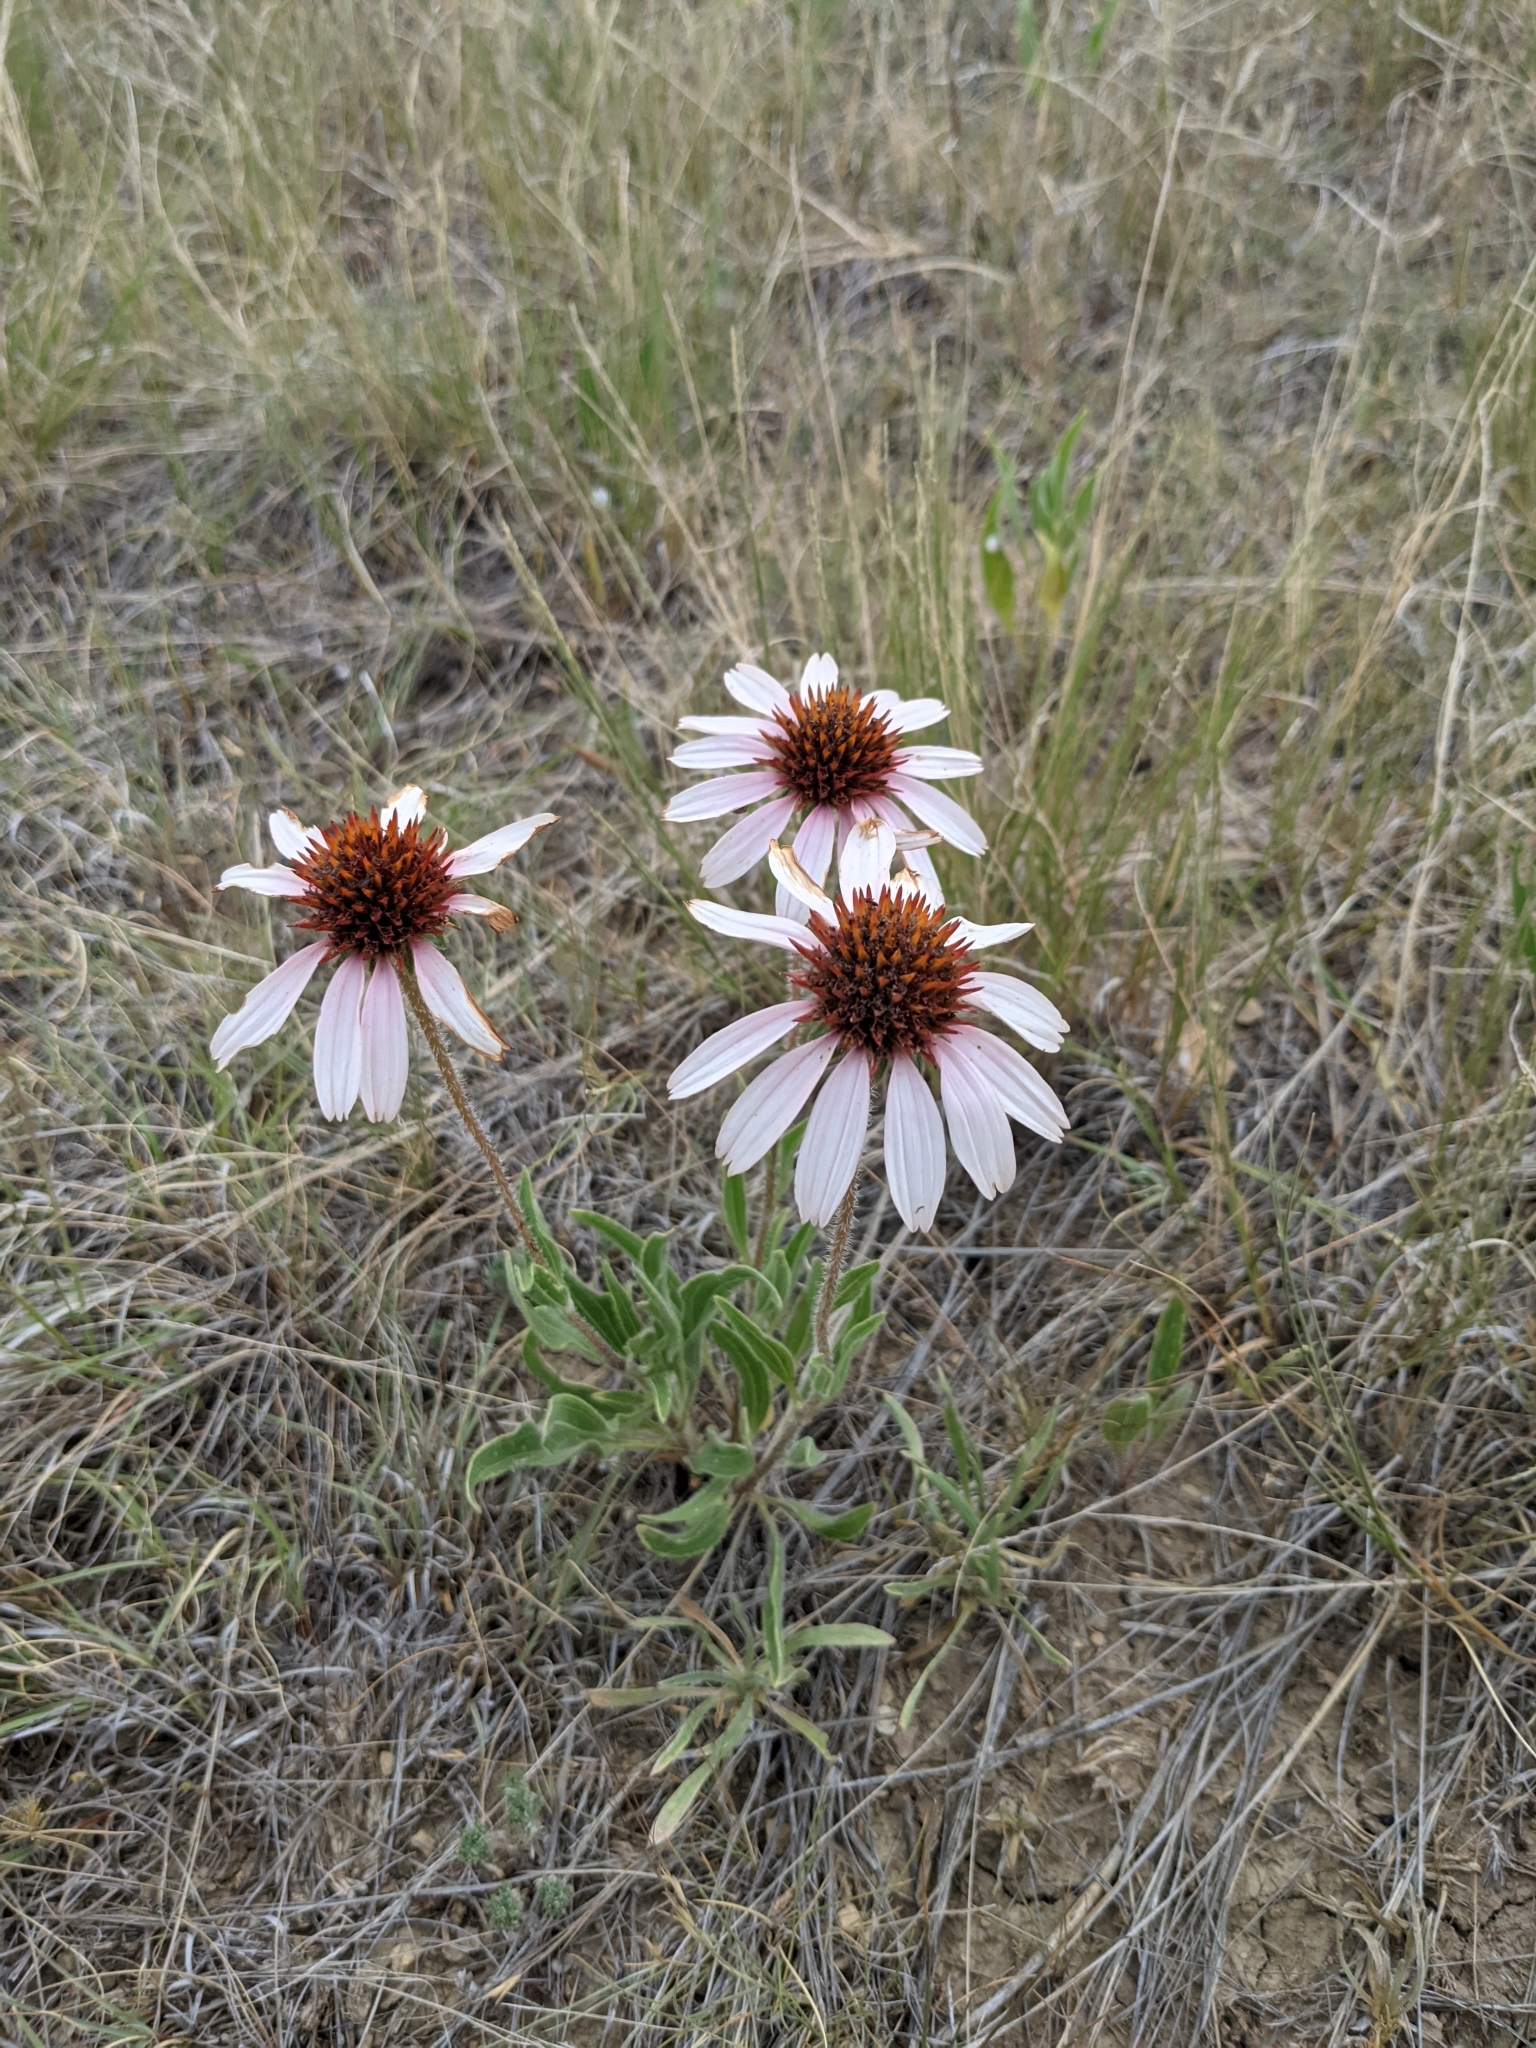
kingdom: Plantae
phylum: Tracheophyta
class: Magnoliopsida
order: Asterales
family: Asteraceae
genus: Echinacea
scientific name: Echinacea angustifolia
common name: Black-sampson echinacea
